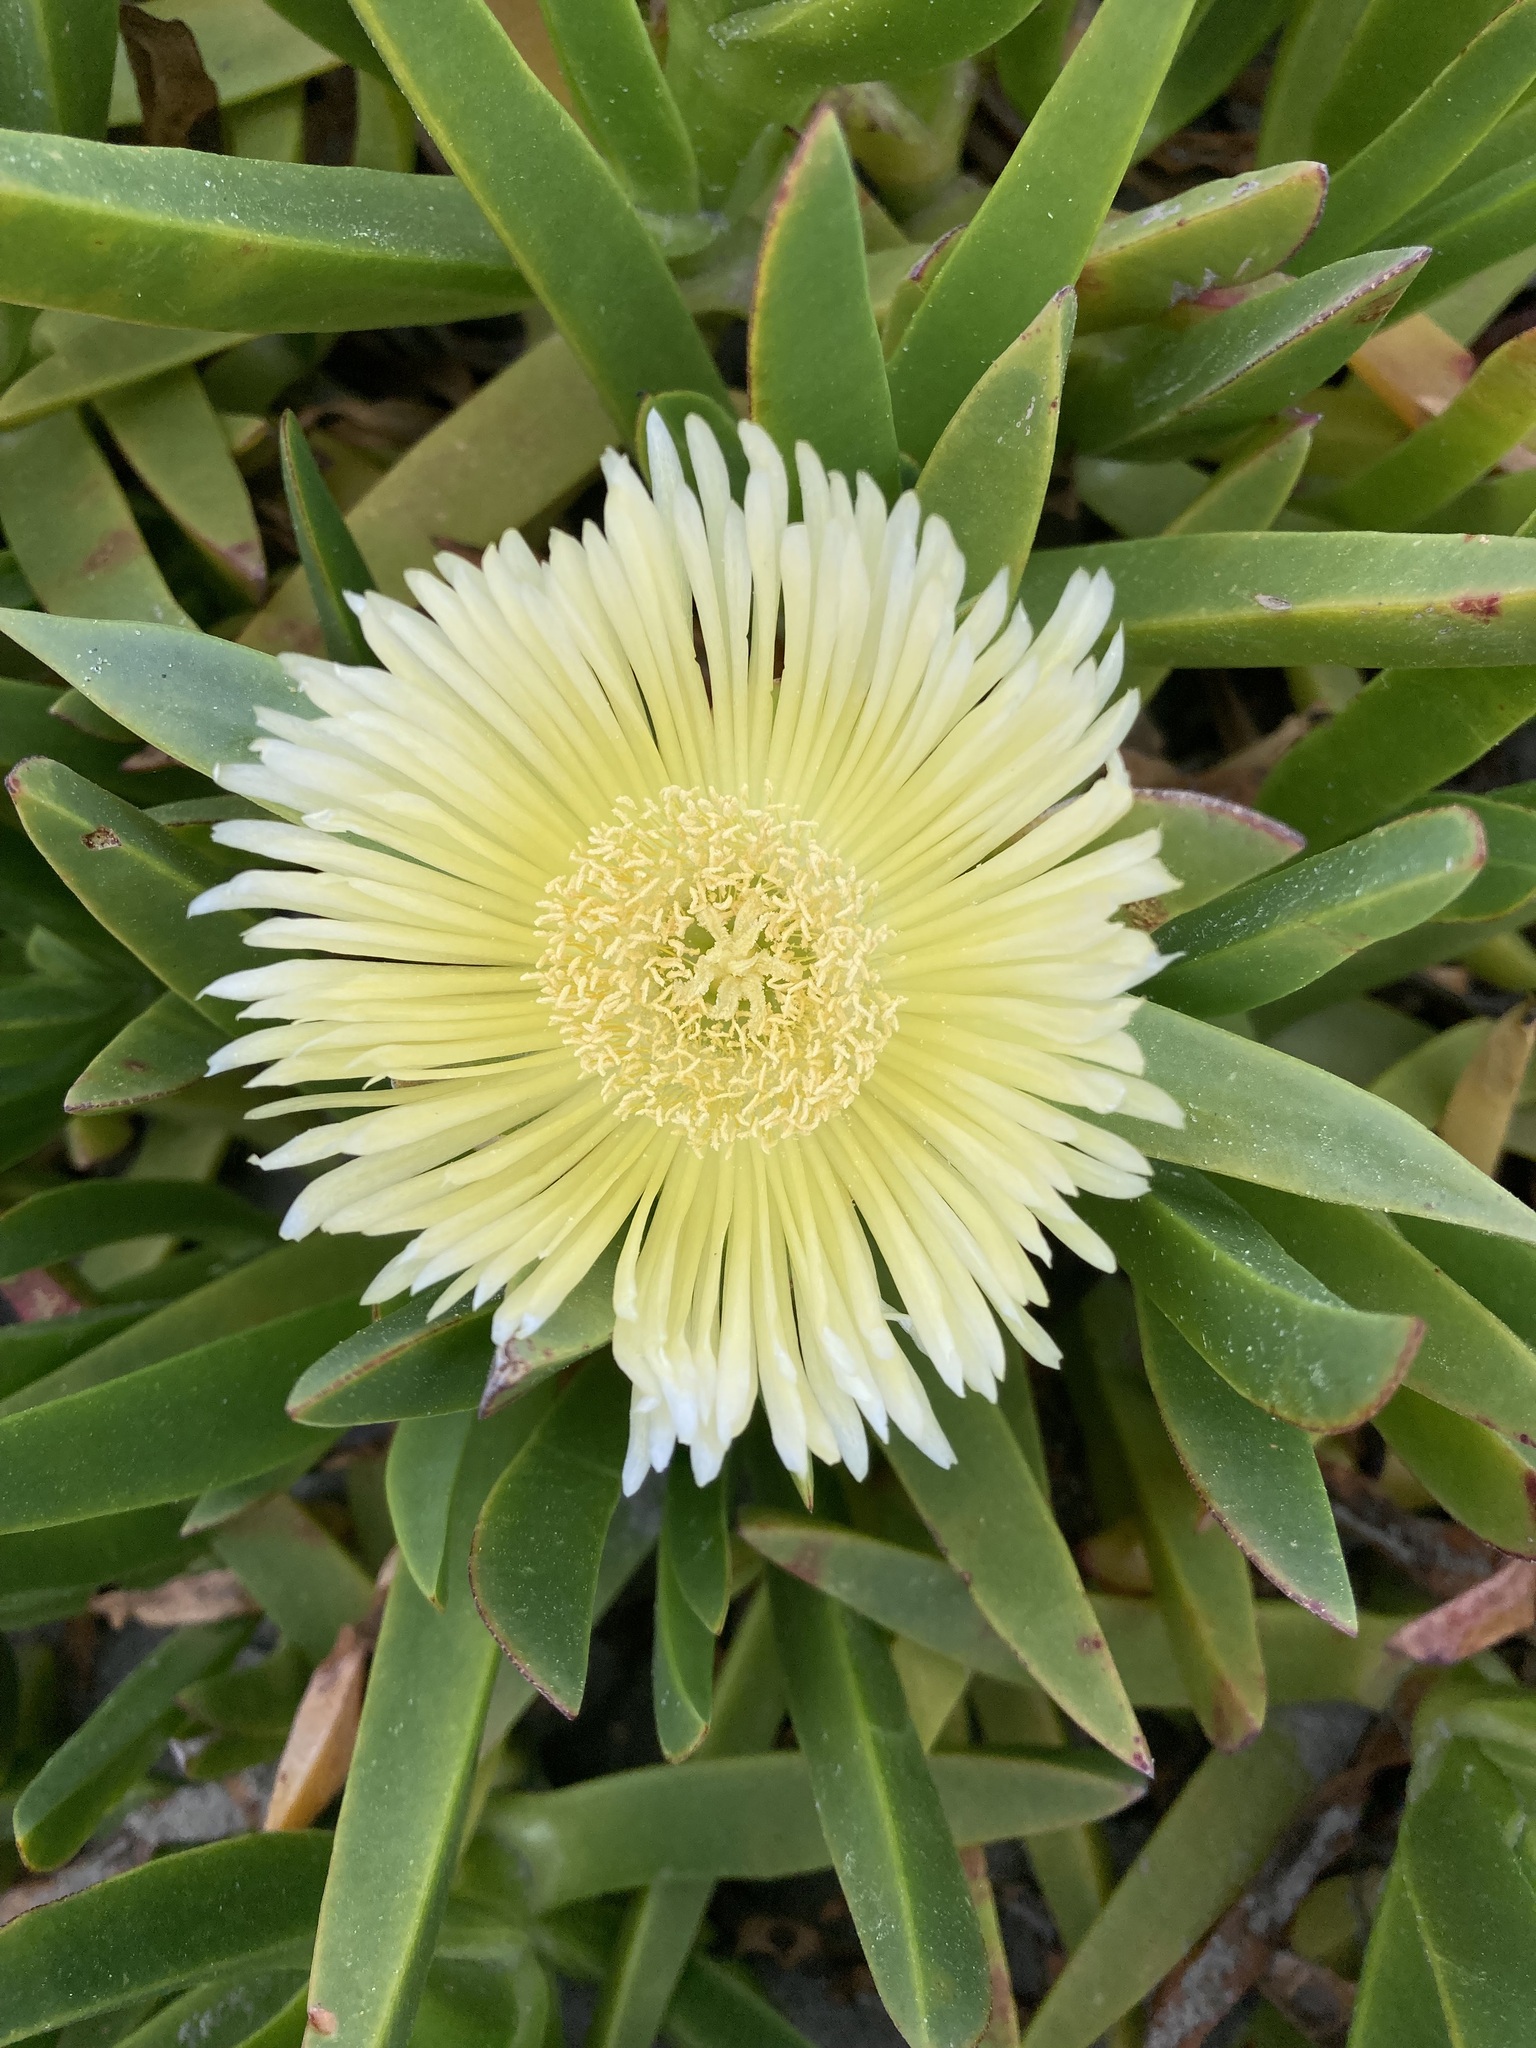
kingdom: Plantae
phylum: Tracheophyta
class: Magnoliopsida
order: Caryophyllales
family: Aizoaceae
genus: Carpobrotus
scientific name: Carpobrotus edulis
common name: Hottentot-fig
